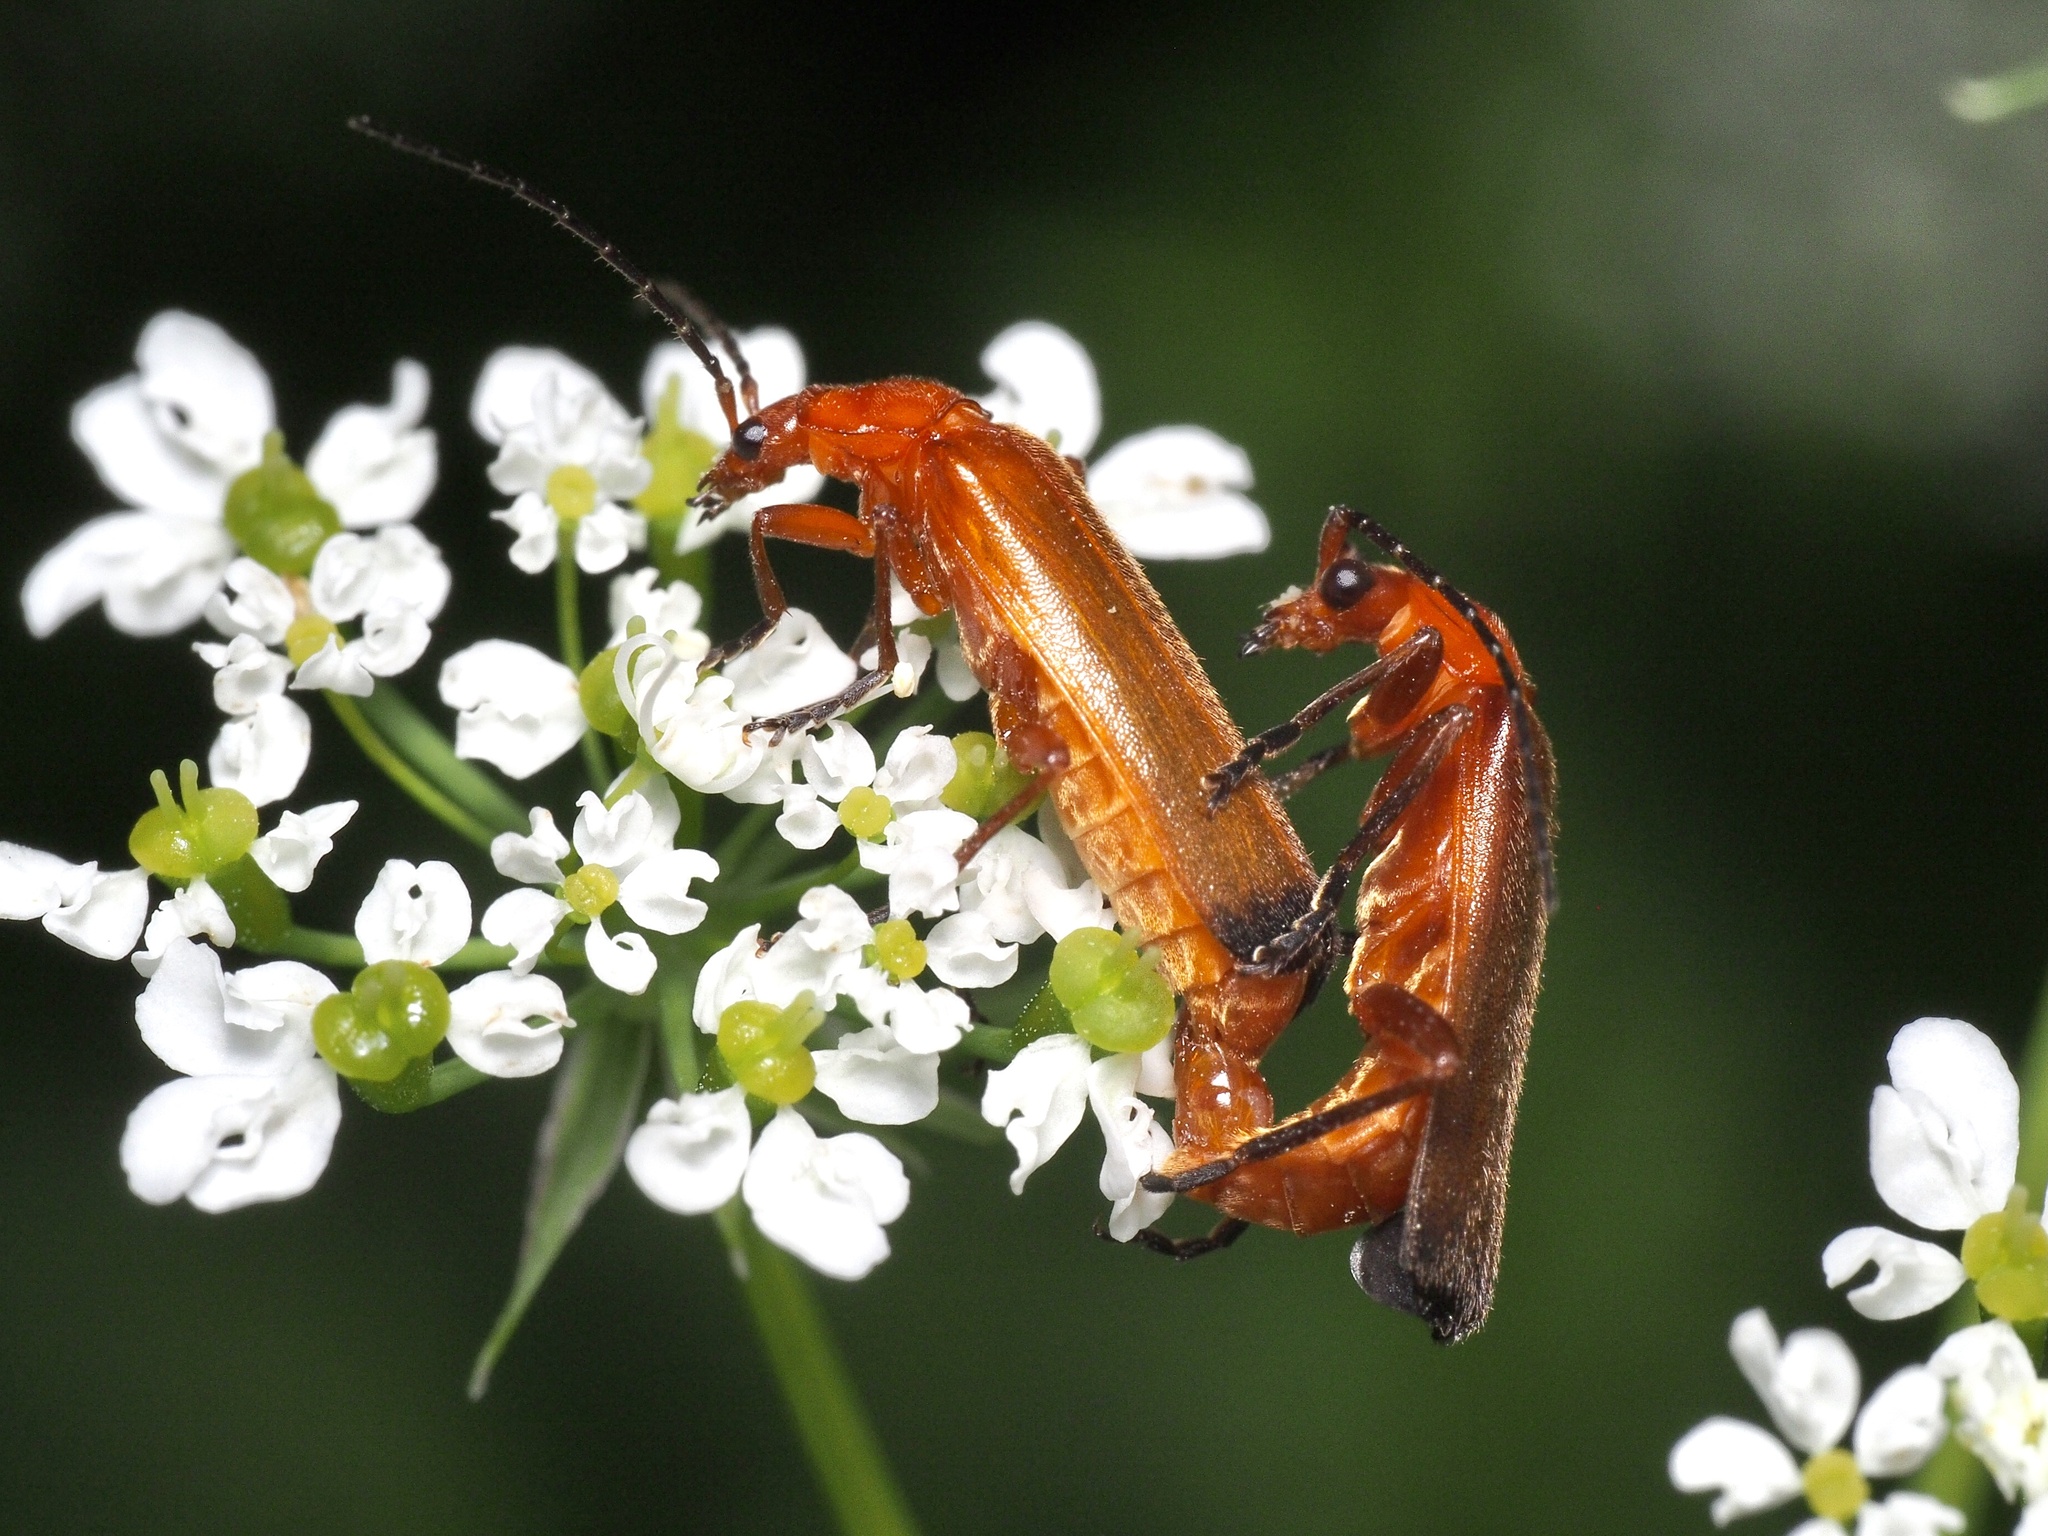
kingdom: Animalia
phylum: Arthropoda
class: Insecta
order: Coleoptera
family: Cantharidae
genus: Rhagonycha
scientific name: Rhagonycha fulva
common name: Common red soldier beetle
